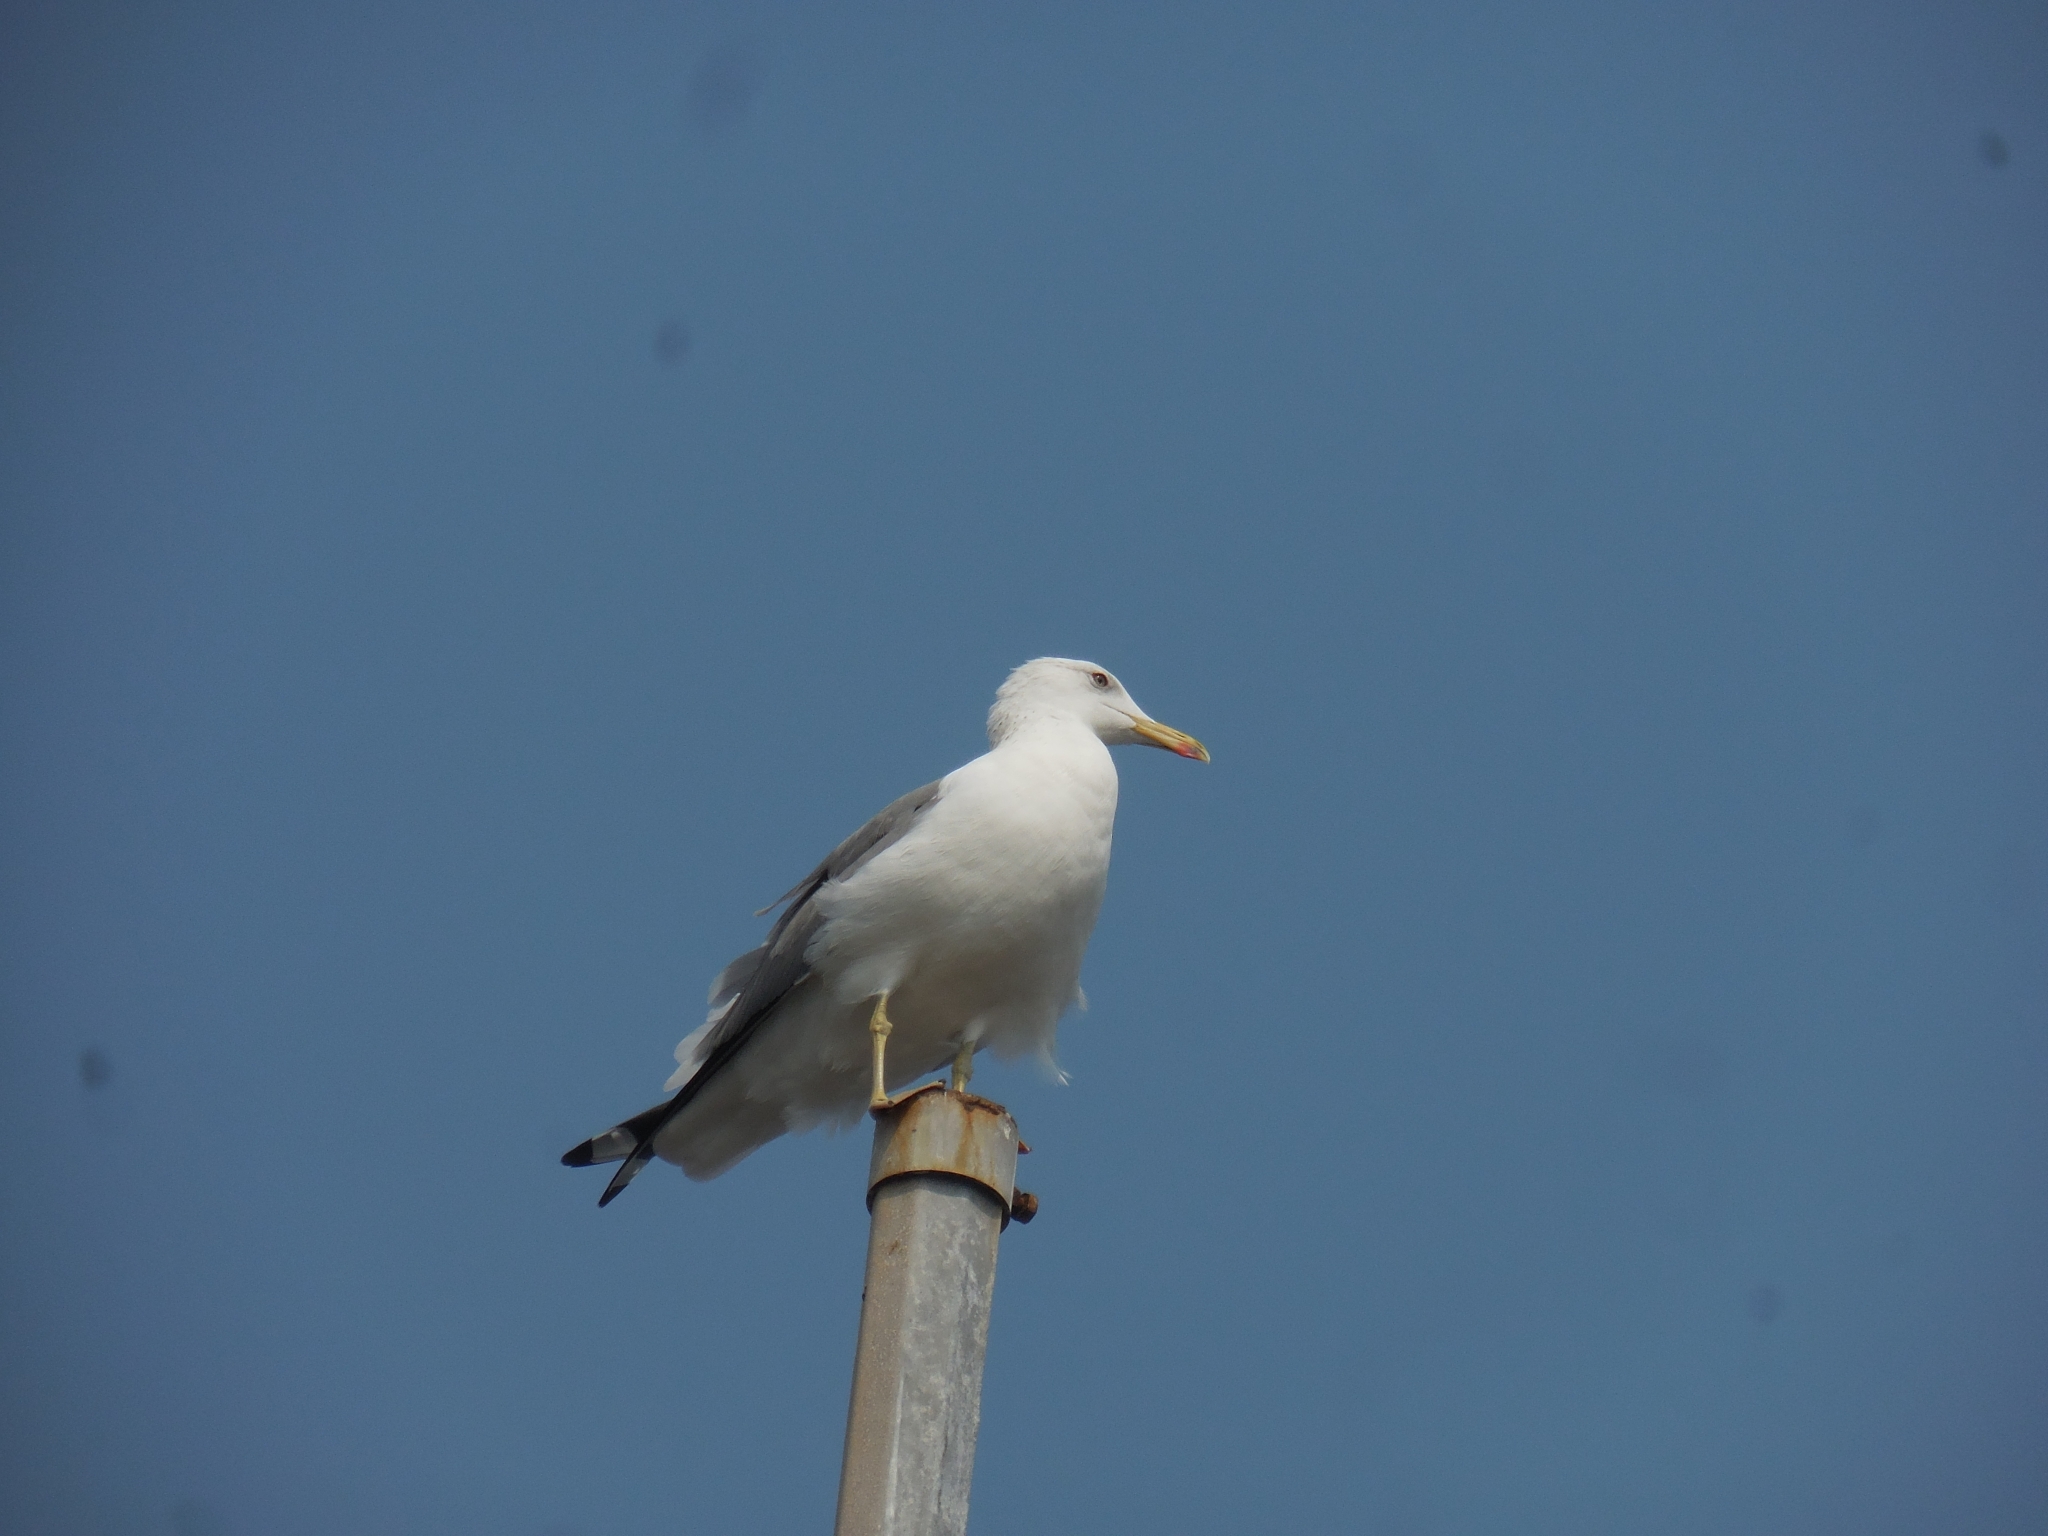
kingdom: Animalia
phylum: Chordata
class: Aves
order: Charadriiformes
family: Laridae
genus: Larus
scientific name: Larus fuscus
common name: Lesser black-backed gull
